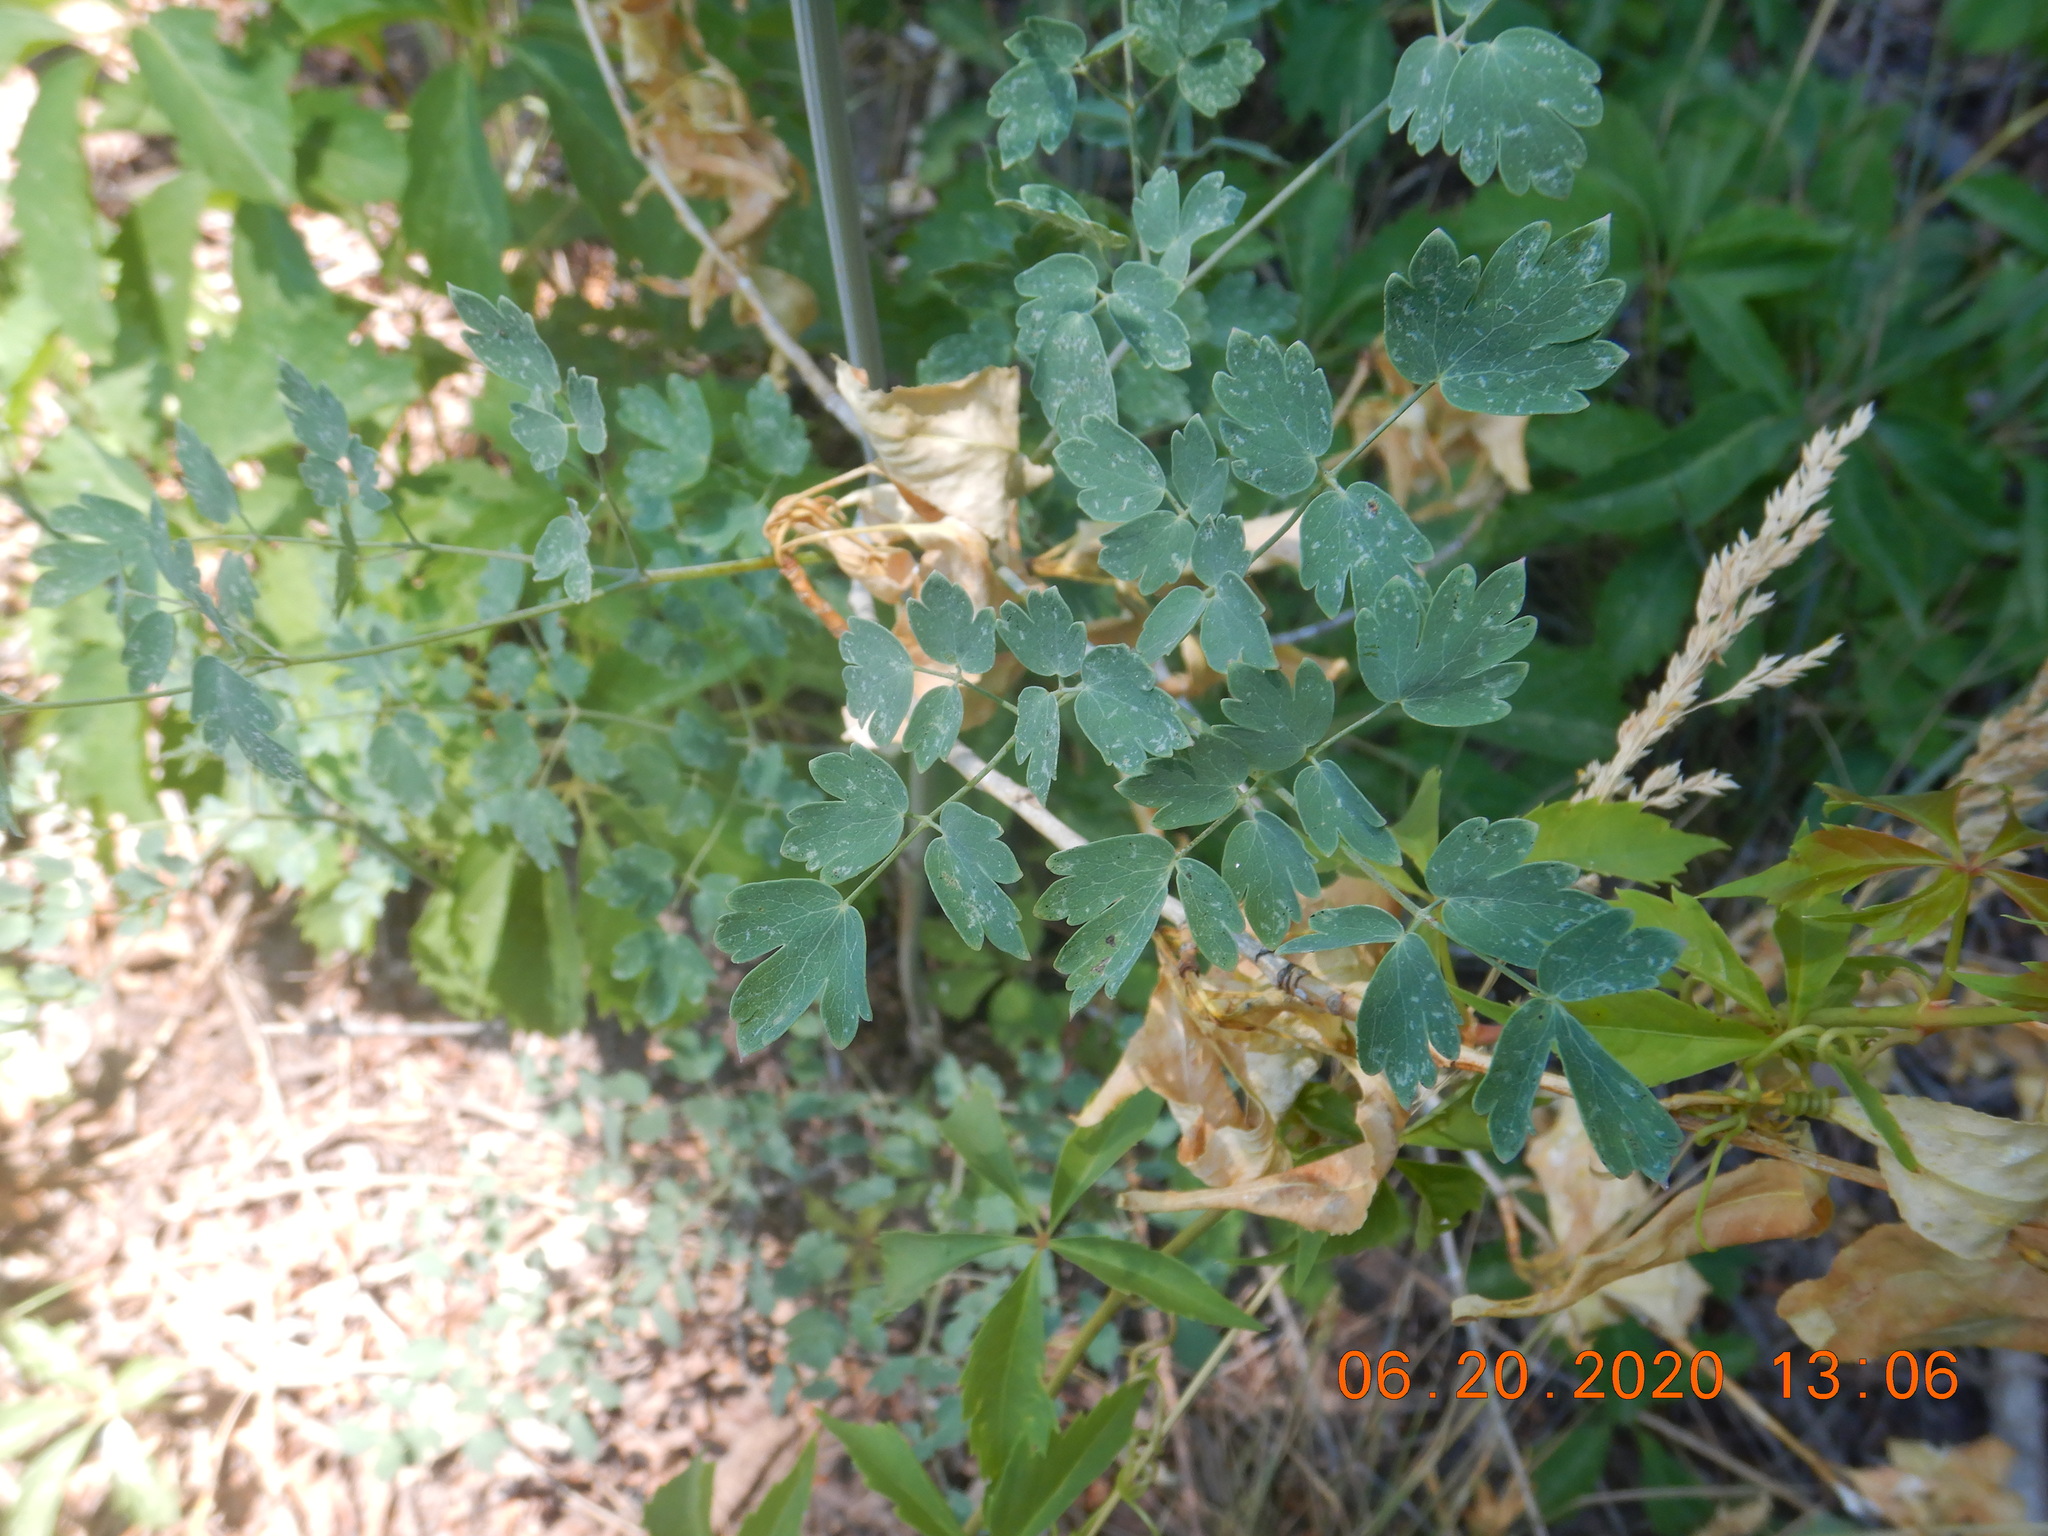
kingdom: Plantae
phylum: Tracheophyta
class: Magnoliopsida
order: Ranunculales
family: Ranunculaceae
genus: Thalictrum
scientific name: Thalictrum fendleri
